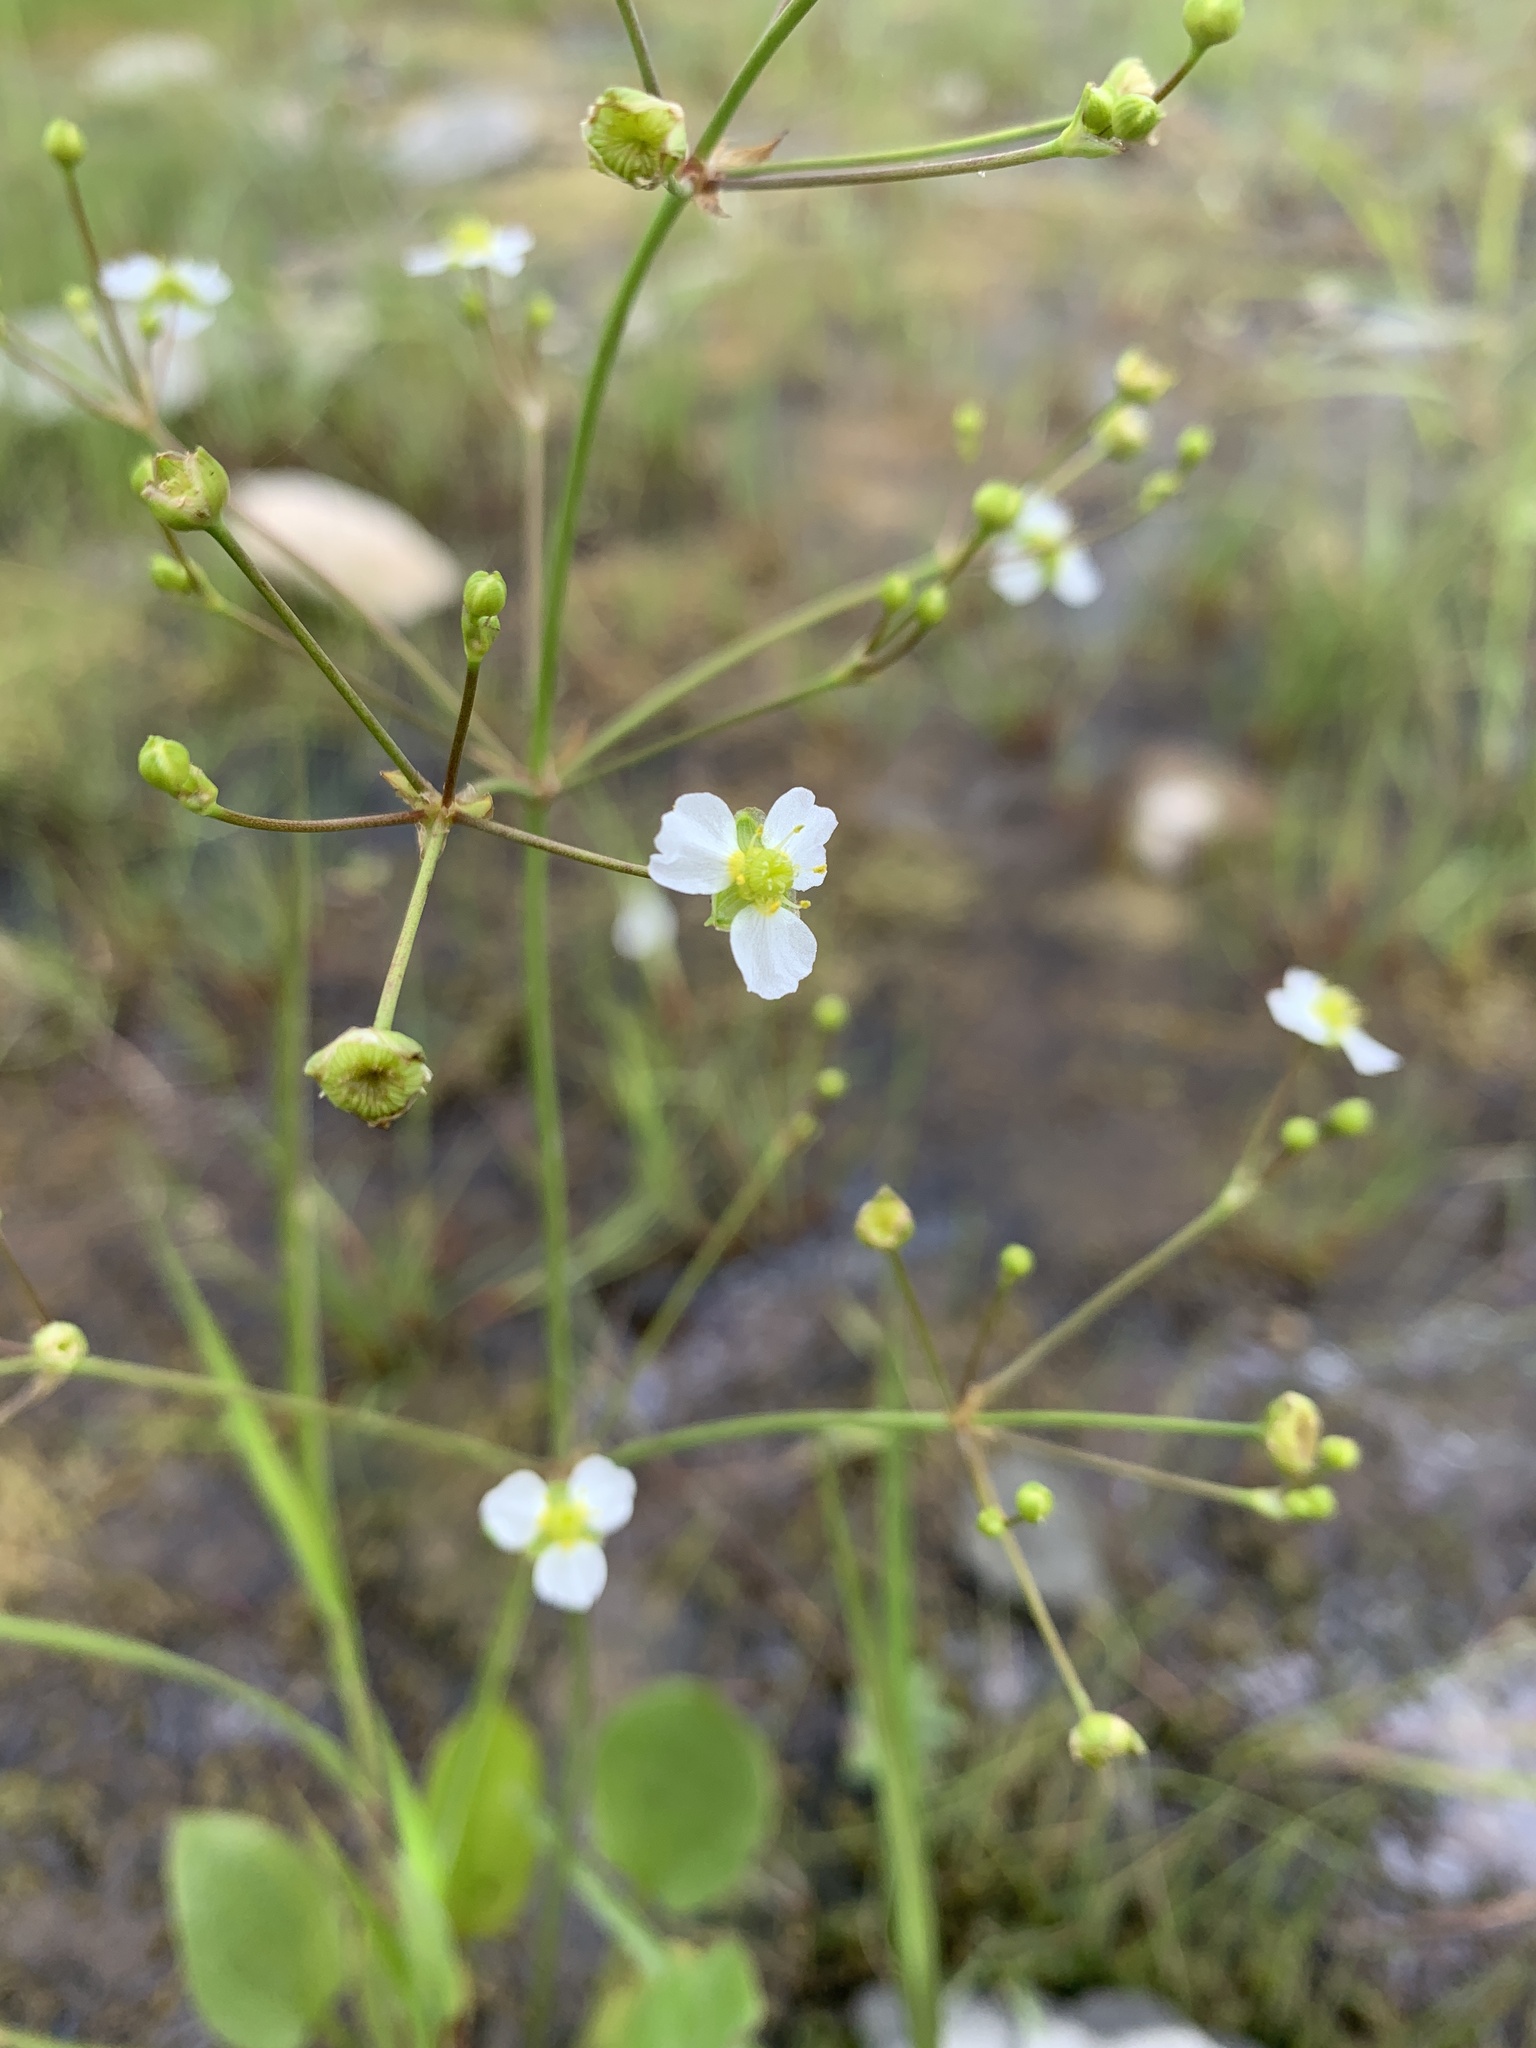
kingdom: Plantae
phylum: Tracheophyta
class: Liliopsida
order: Alismatales
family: Alismataceae
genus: Alisma
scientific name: Alisma triviale
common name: Northern water-plantain
